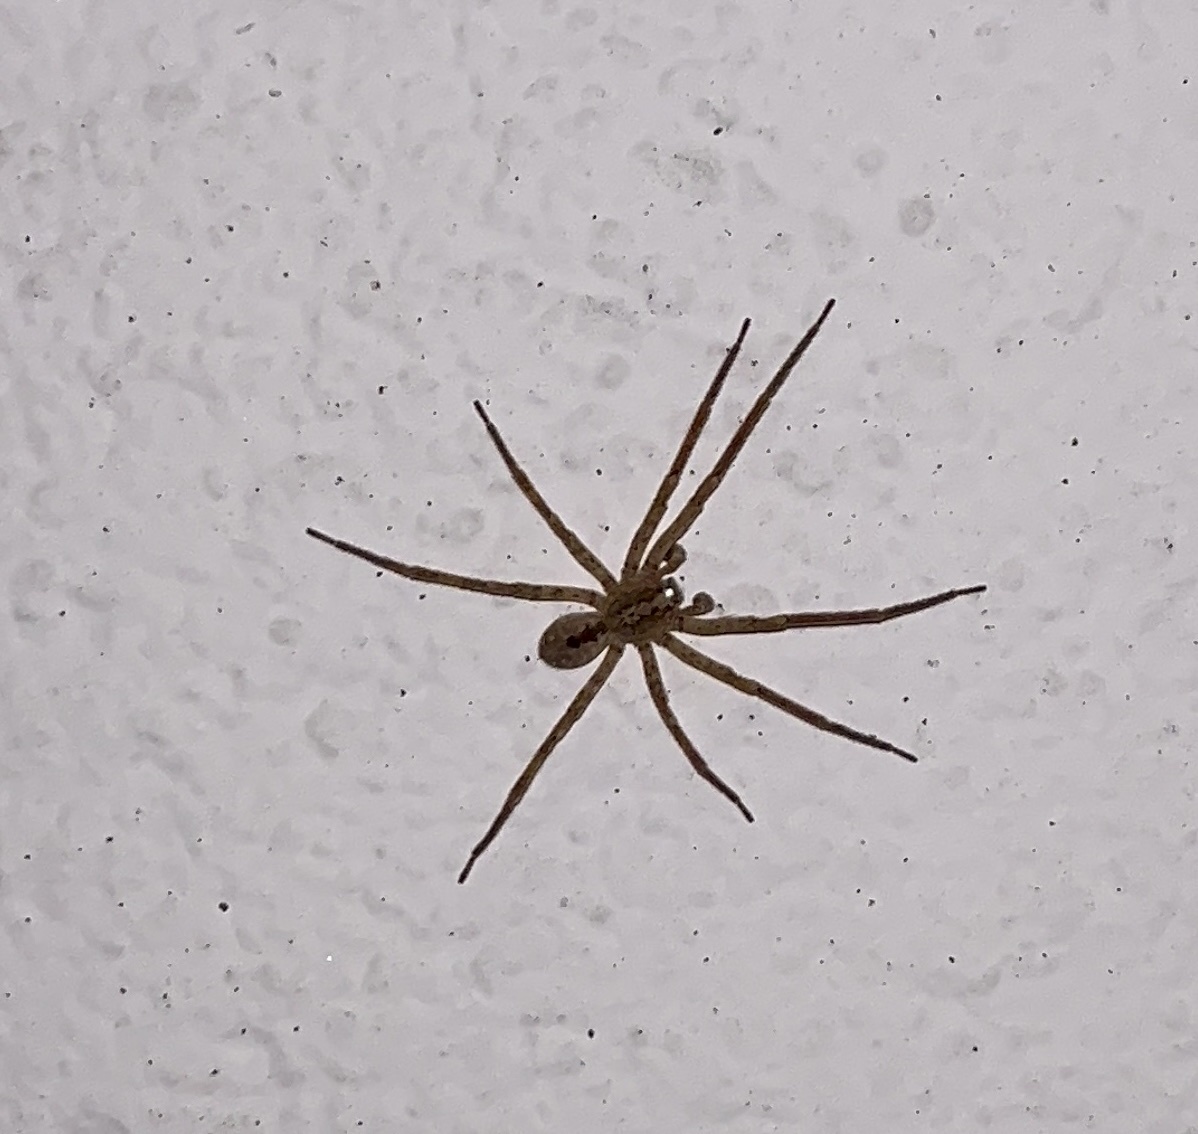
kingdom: Animalia
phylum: Arthropoda
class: Arachnida
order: Araneae
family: Zoropsidae
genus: Zoropsis
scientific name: Zoropsis spinimana
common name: Zoropsid spider
